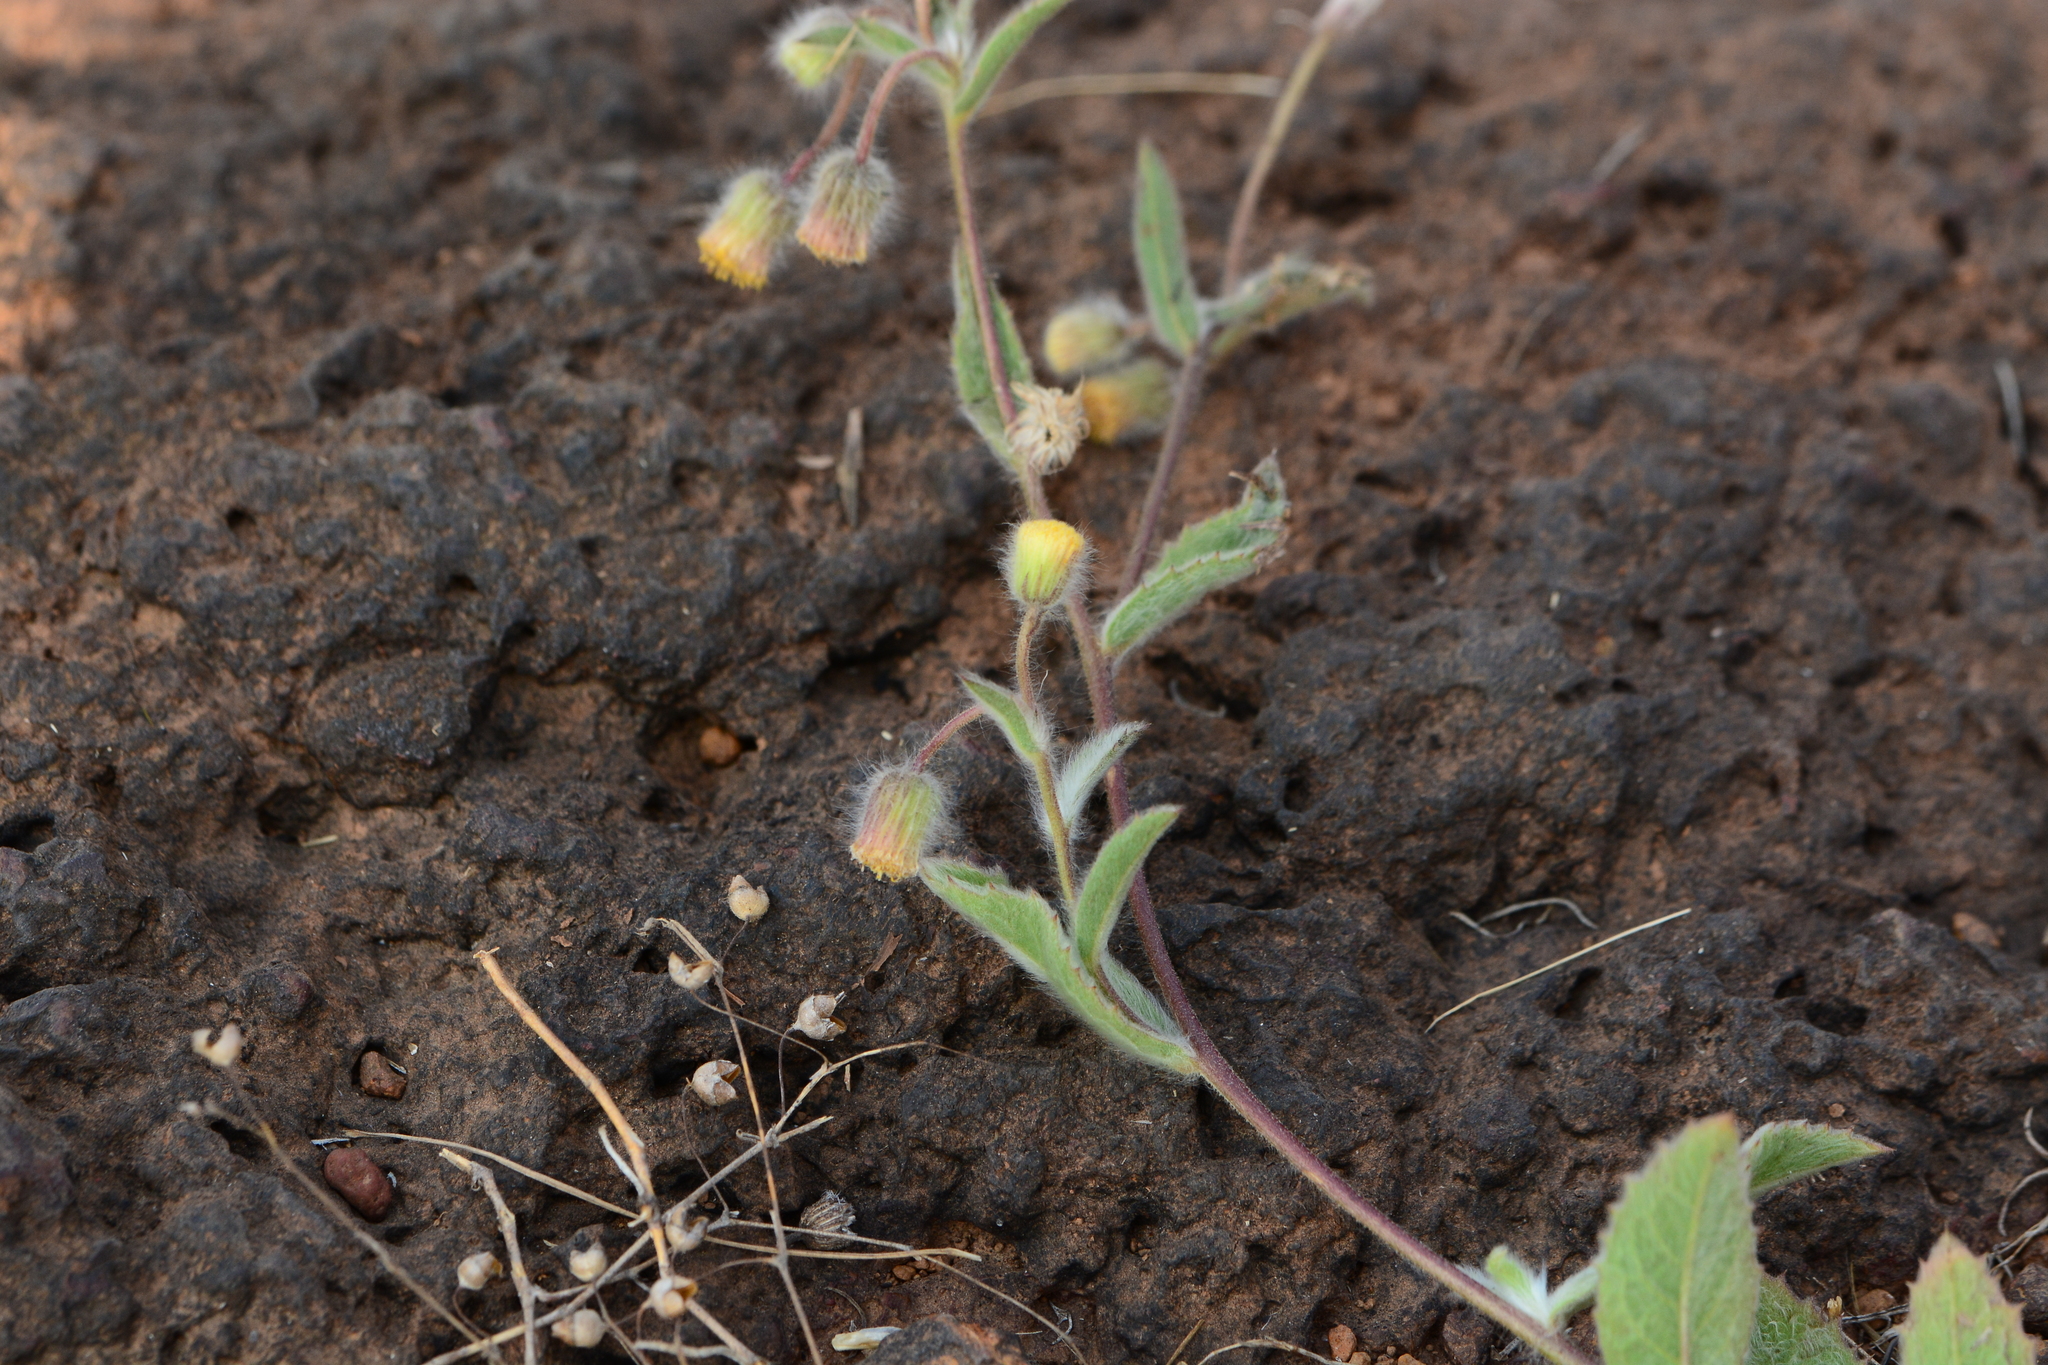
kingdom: Plantae
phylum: Tracheophyta
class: Magnoliopsida
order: Asterales
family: Asteraceae
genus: Blumea
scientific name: Blumea oxyodonta
